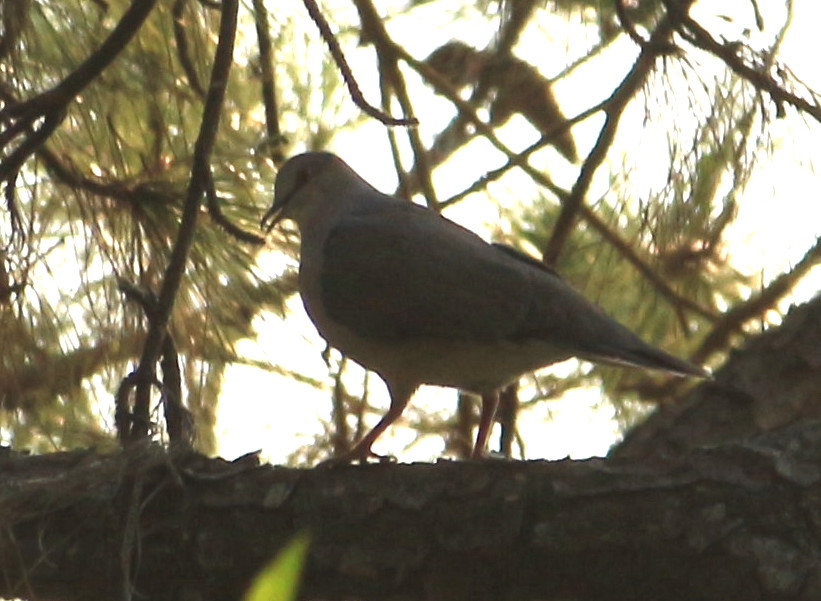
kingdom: Animalia
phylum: Chordata
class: Aves
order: Columbiformes
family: Columbidae
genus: Leptotila
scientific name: Leptotila verreauxi
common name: White-tipped dove
